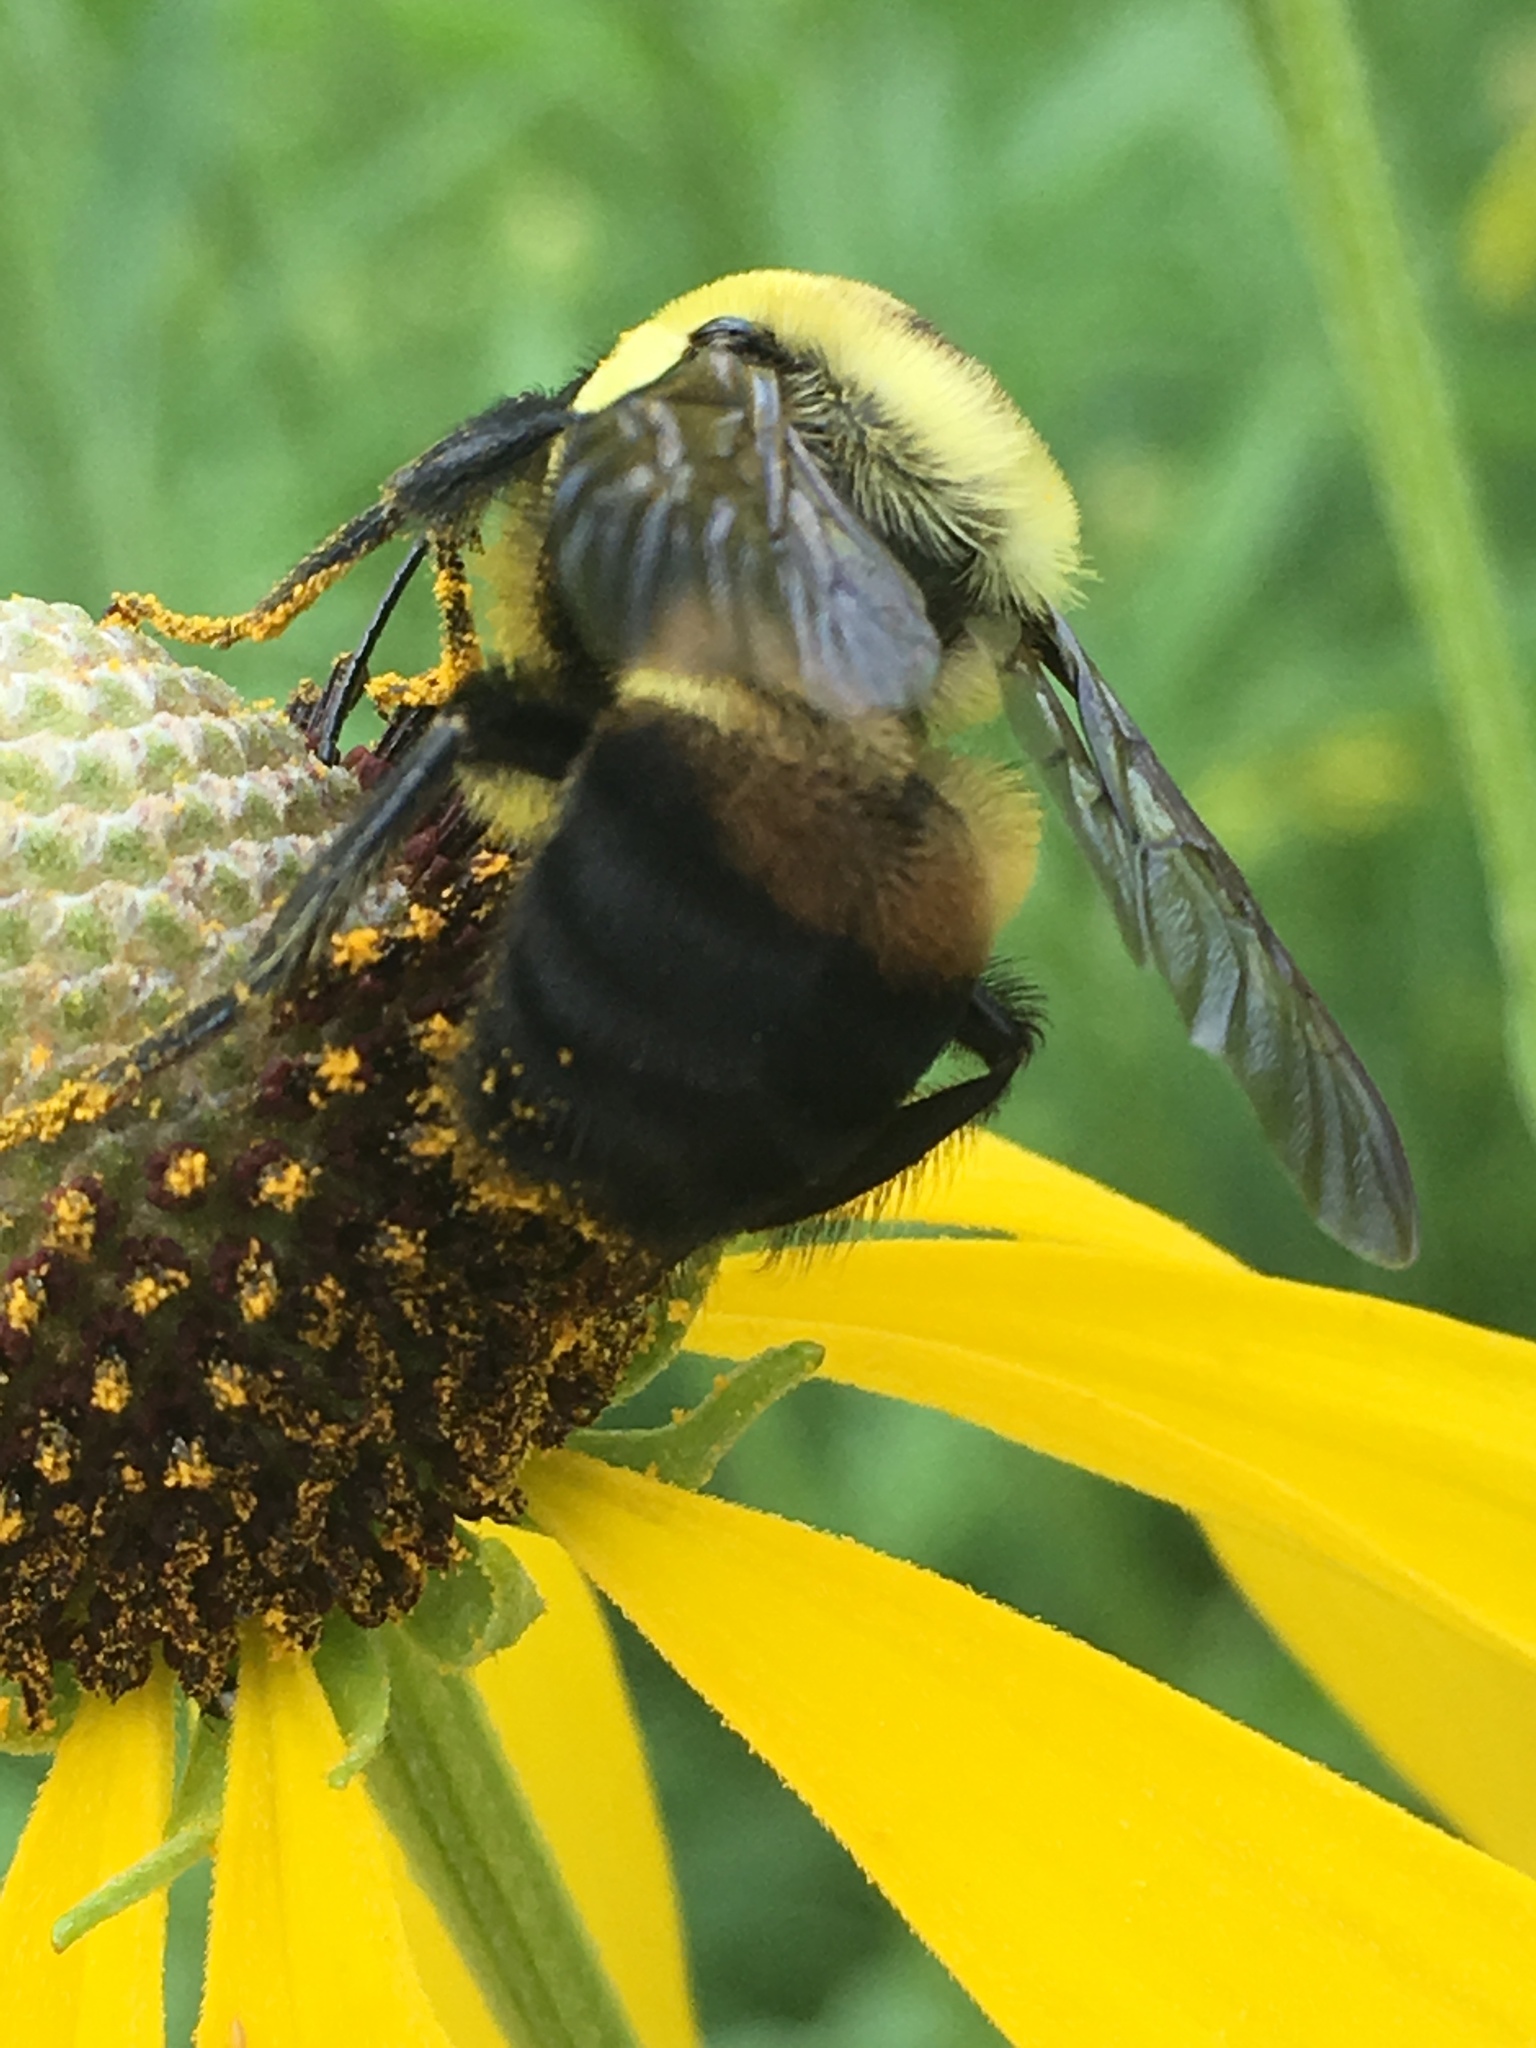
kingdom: Animalia
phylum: Arthropoda
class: Insecta
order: Hymenoptera
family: Apidae
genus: Bombus
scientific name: Bombus griseocollis
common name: Brown-belted bumble bee
